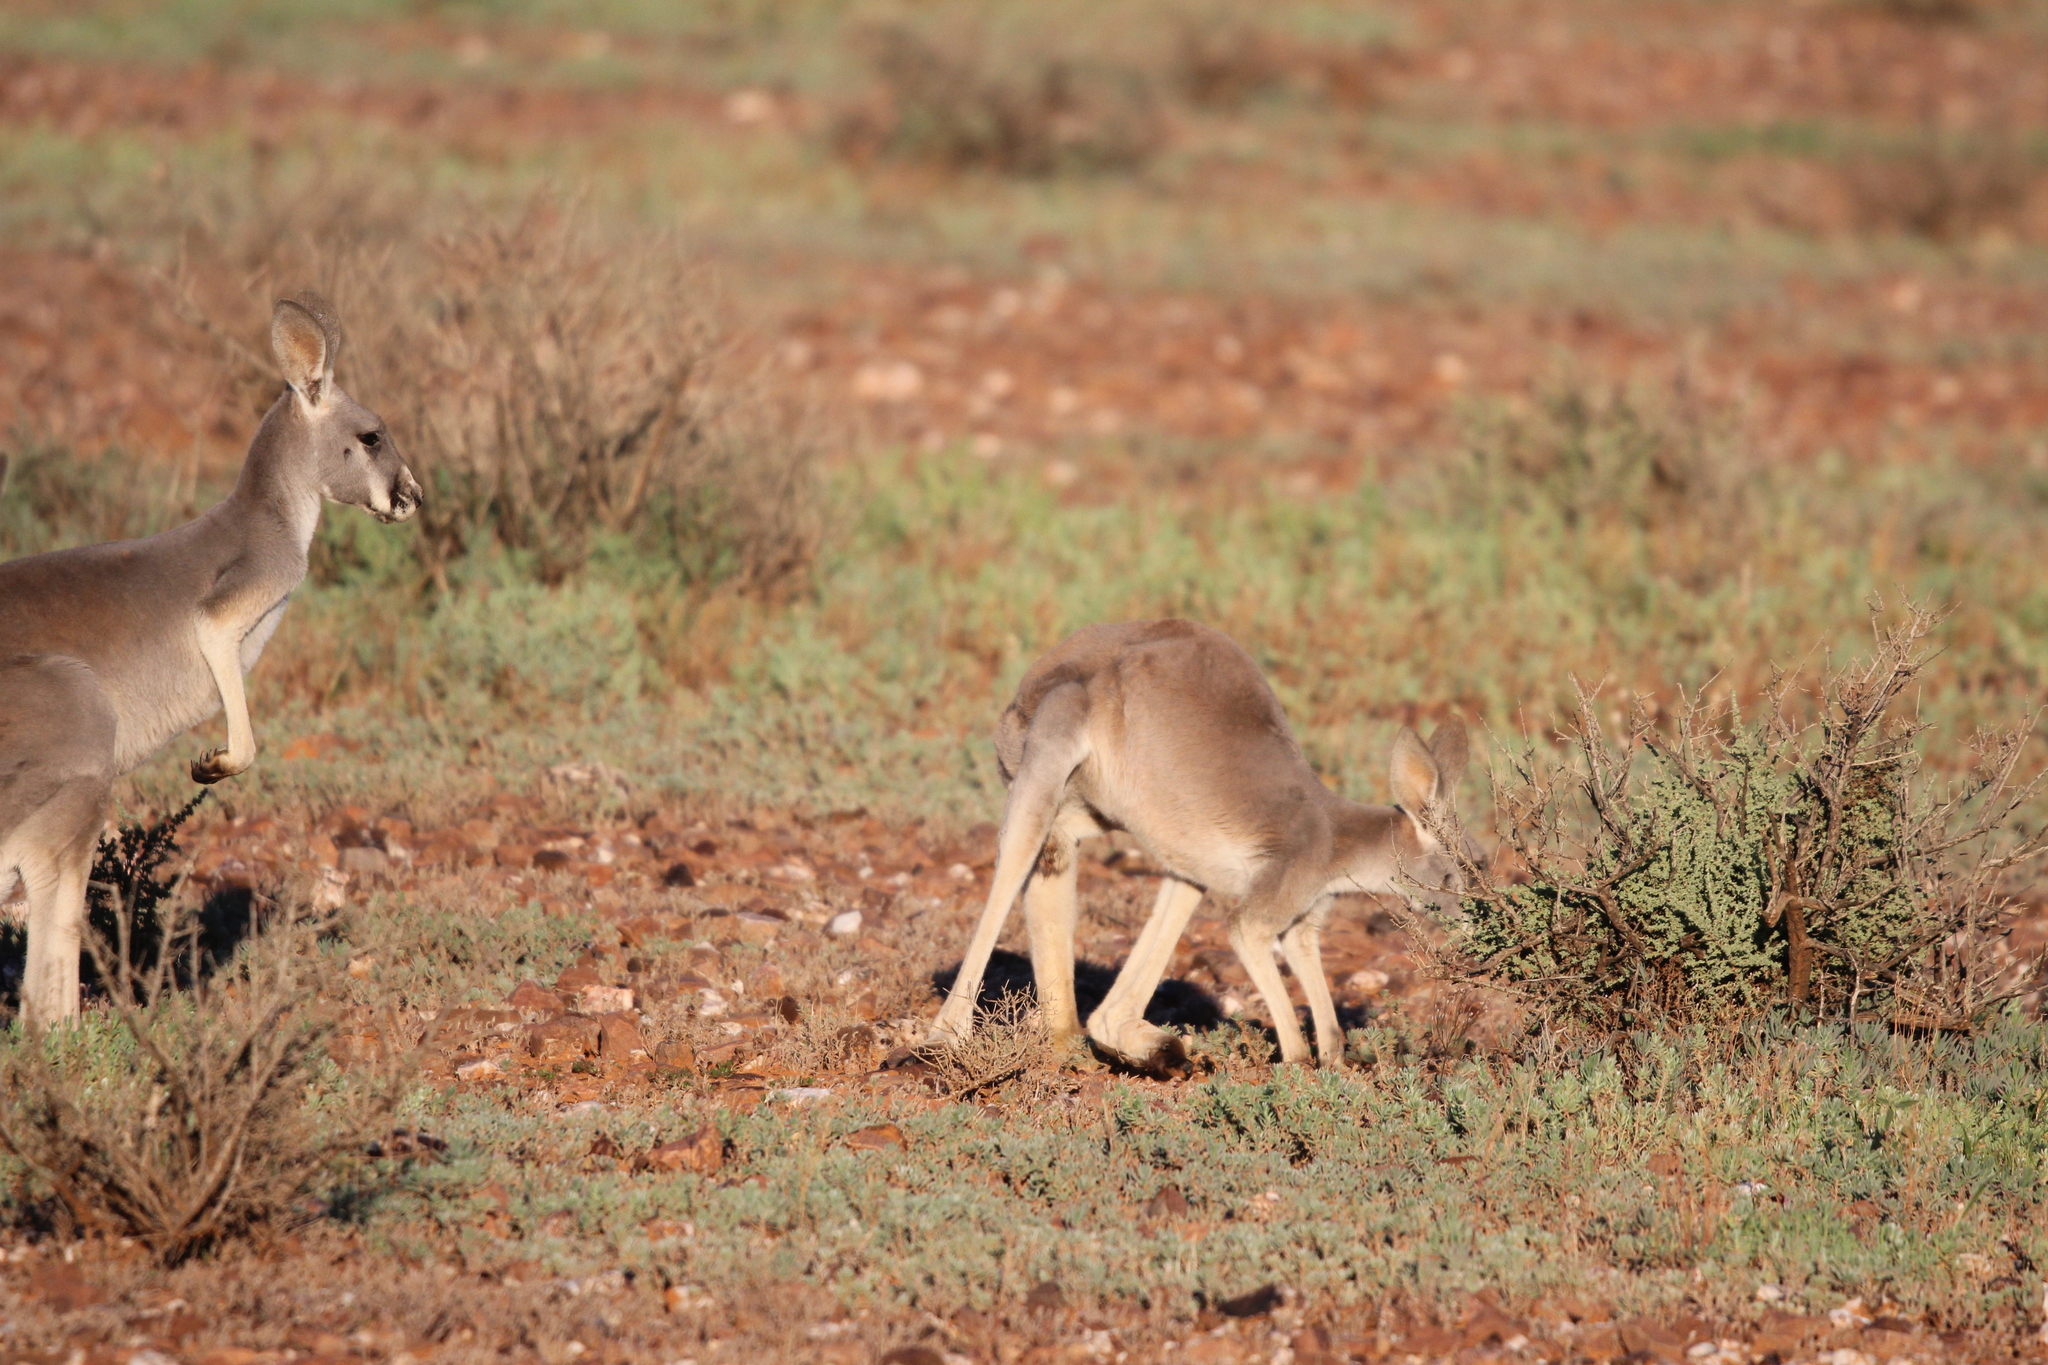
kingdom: Animalia
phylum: Chordata
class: Mammalia
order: Diprotodontia
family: Macropodidae
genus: Macropus
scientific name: Macropus rufus
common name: Red kangaroo
